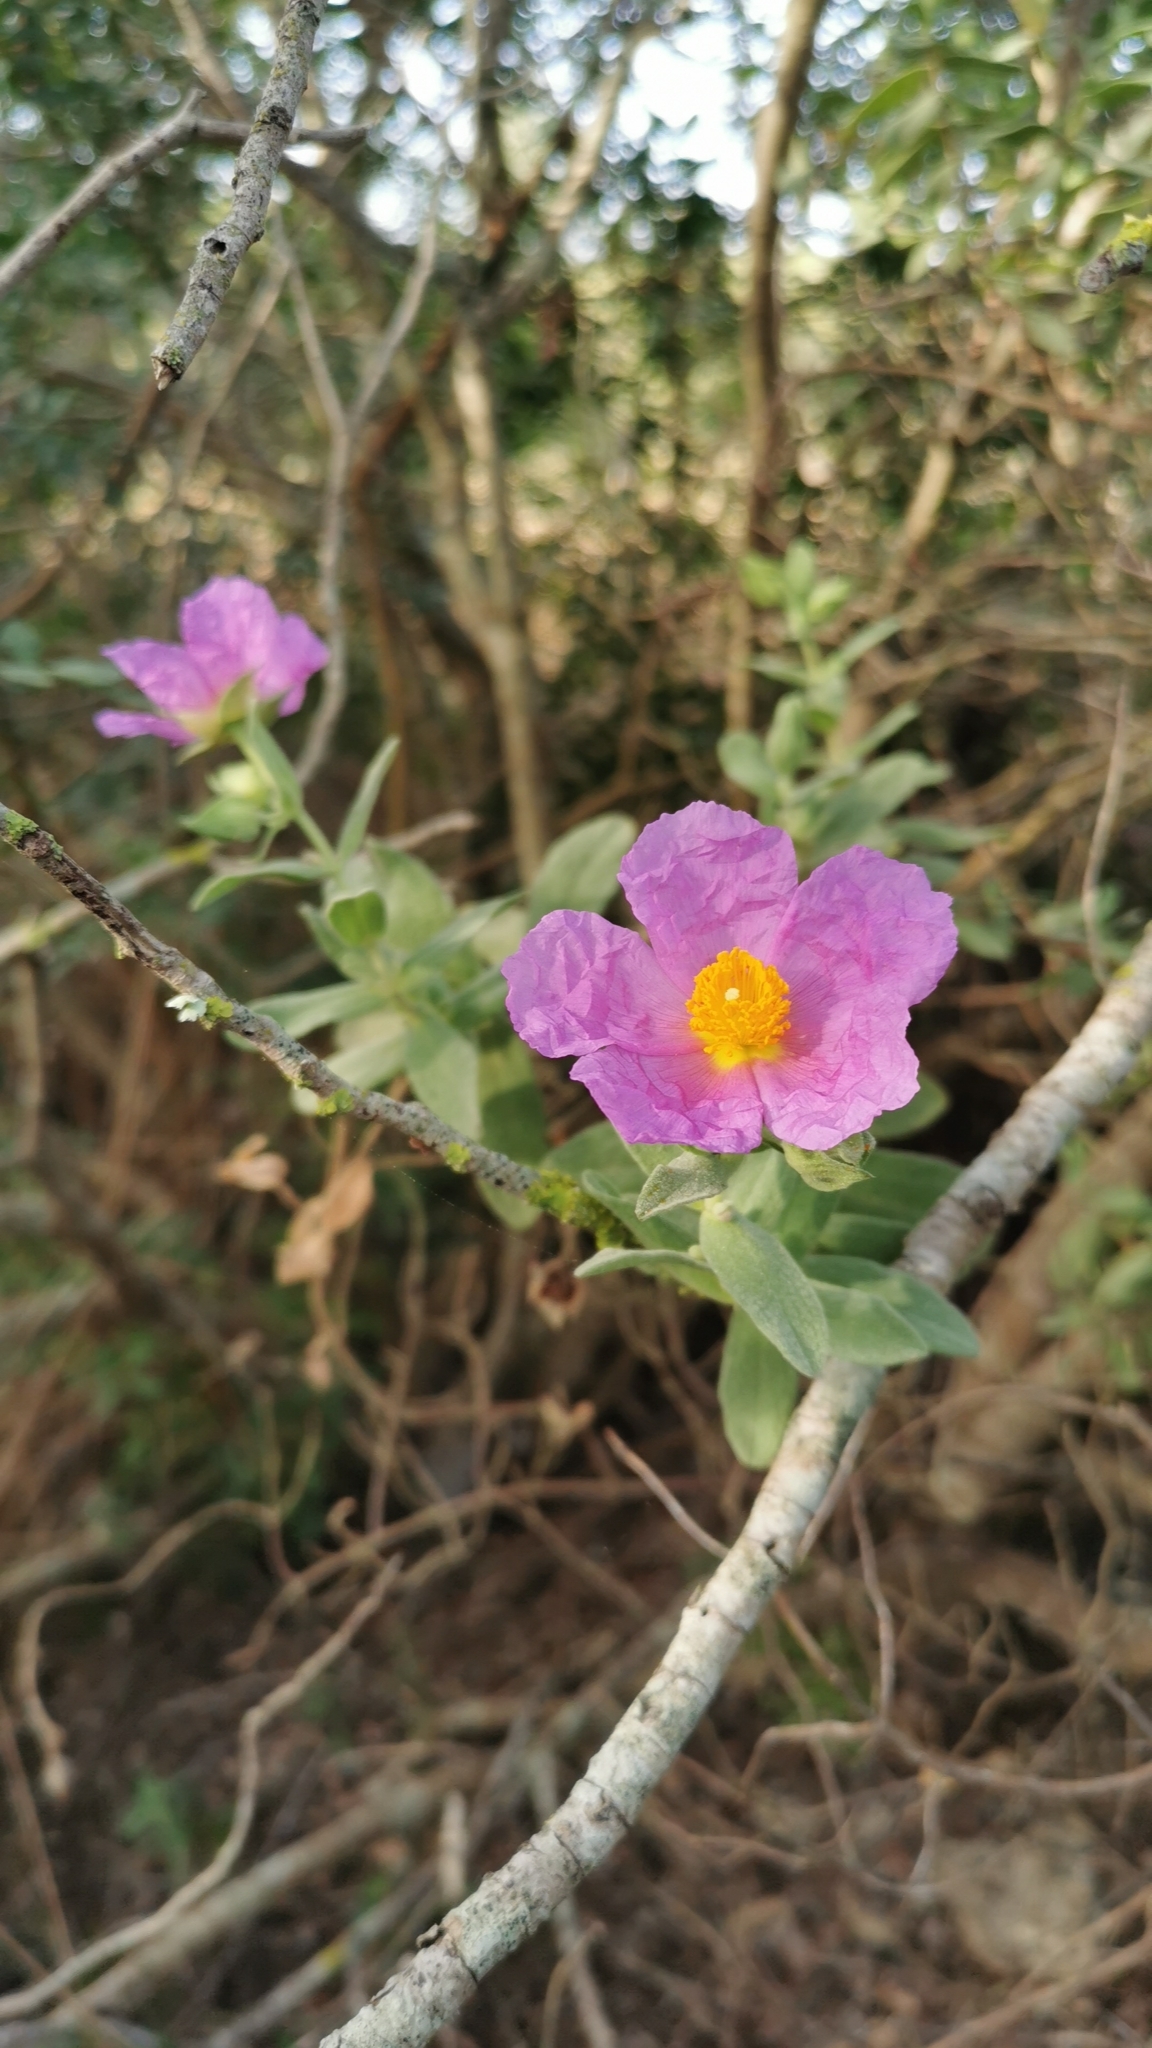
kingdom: Plantae
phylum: Tracheophyta
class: Magnoliopsida
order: Malvales
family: Cistaceae
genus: Cistus
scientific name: Cistus albidus
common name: White-leaf rock-rose
